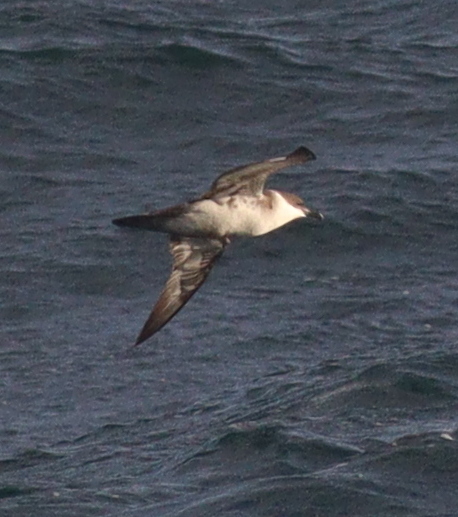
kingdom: Animalia
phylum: Chordata
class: Aves
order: Procellariiformes
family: Procellariidae
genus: Puffinus
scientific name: Puffinus gravis
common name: Great shearwater
